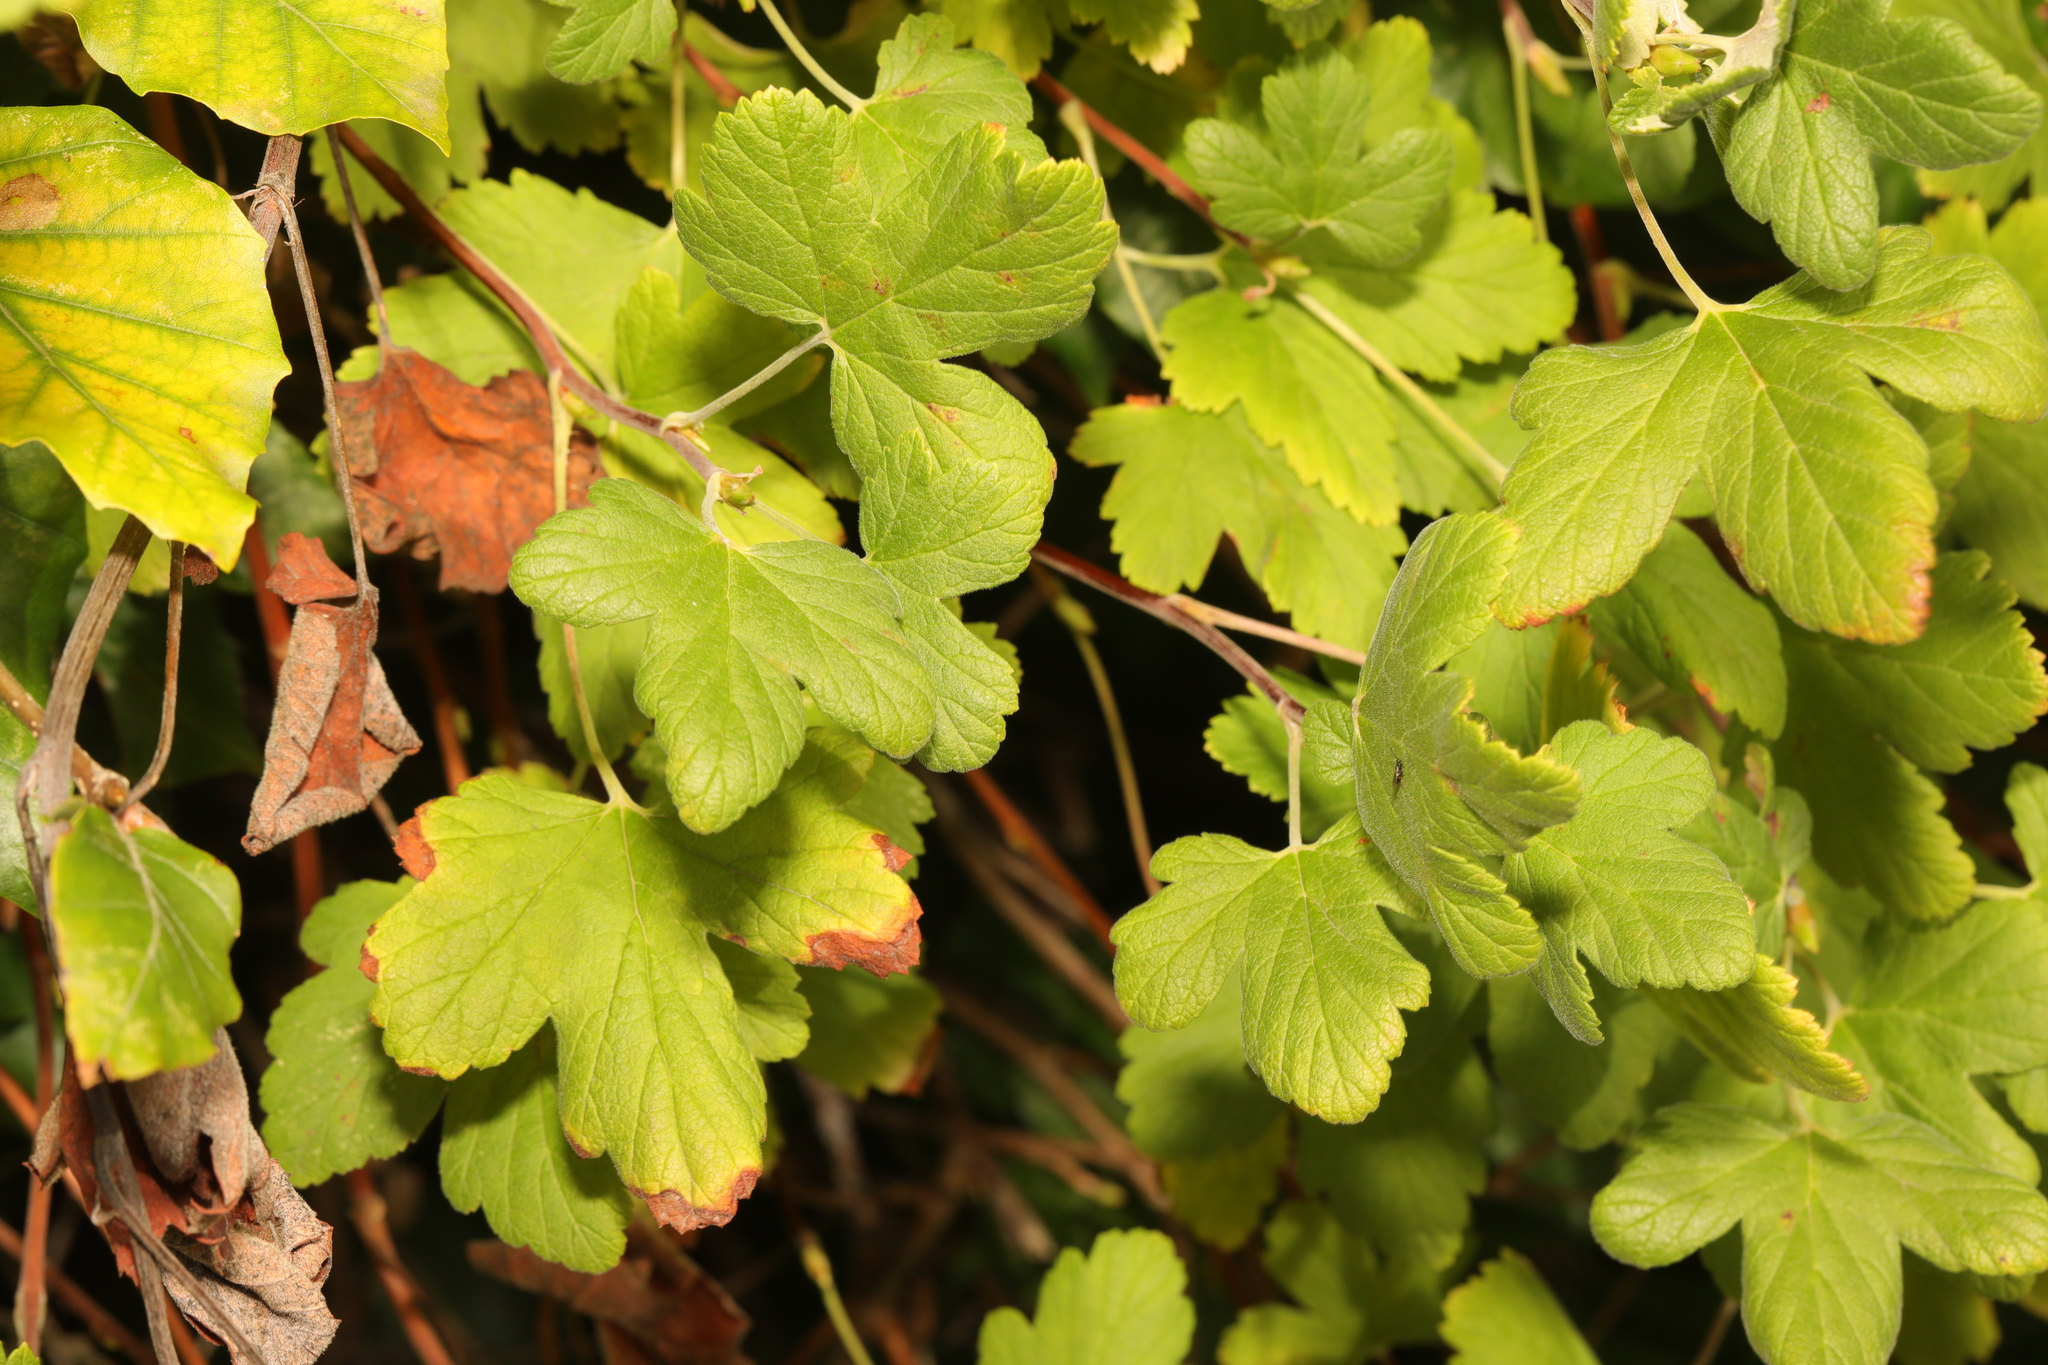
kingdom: Plantae
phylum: Tracheophyta
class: Magnoliopsida
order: Saxifragales
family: Grossulariaceae
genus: Ribes
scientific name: Ribes sanguineum
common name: Flowering currant
